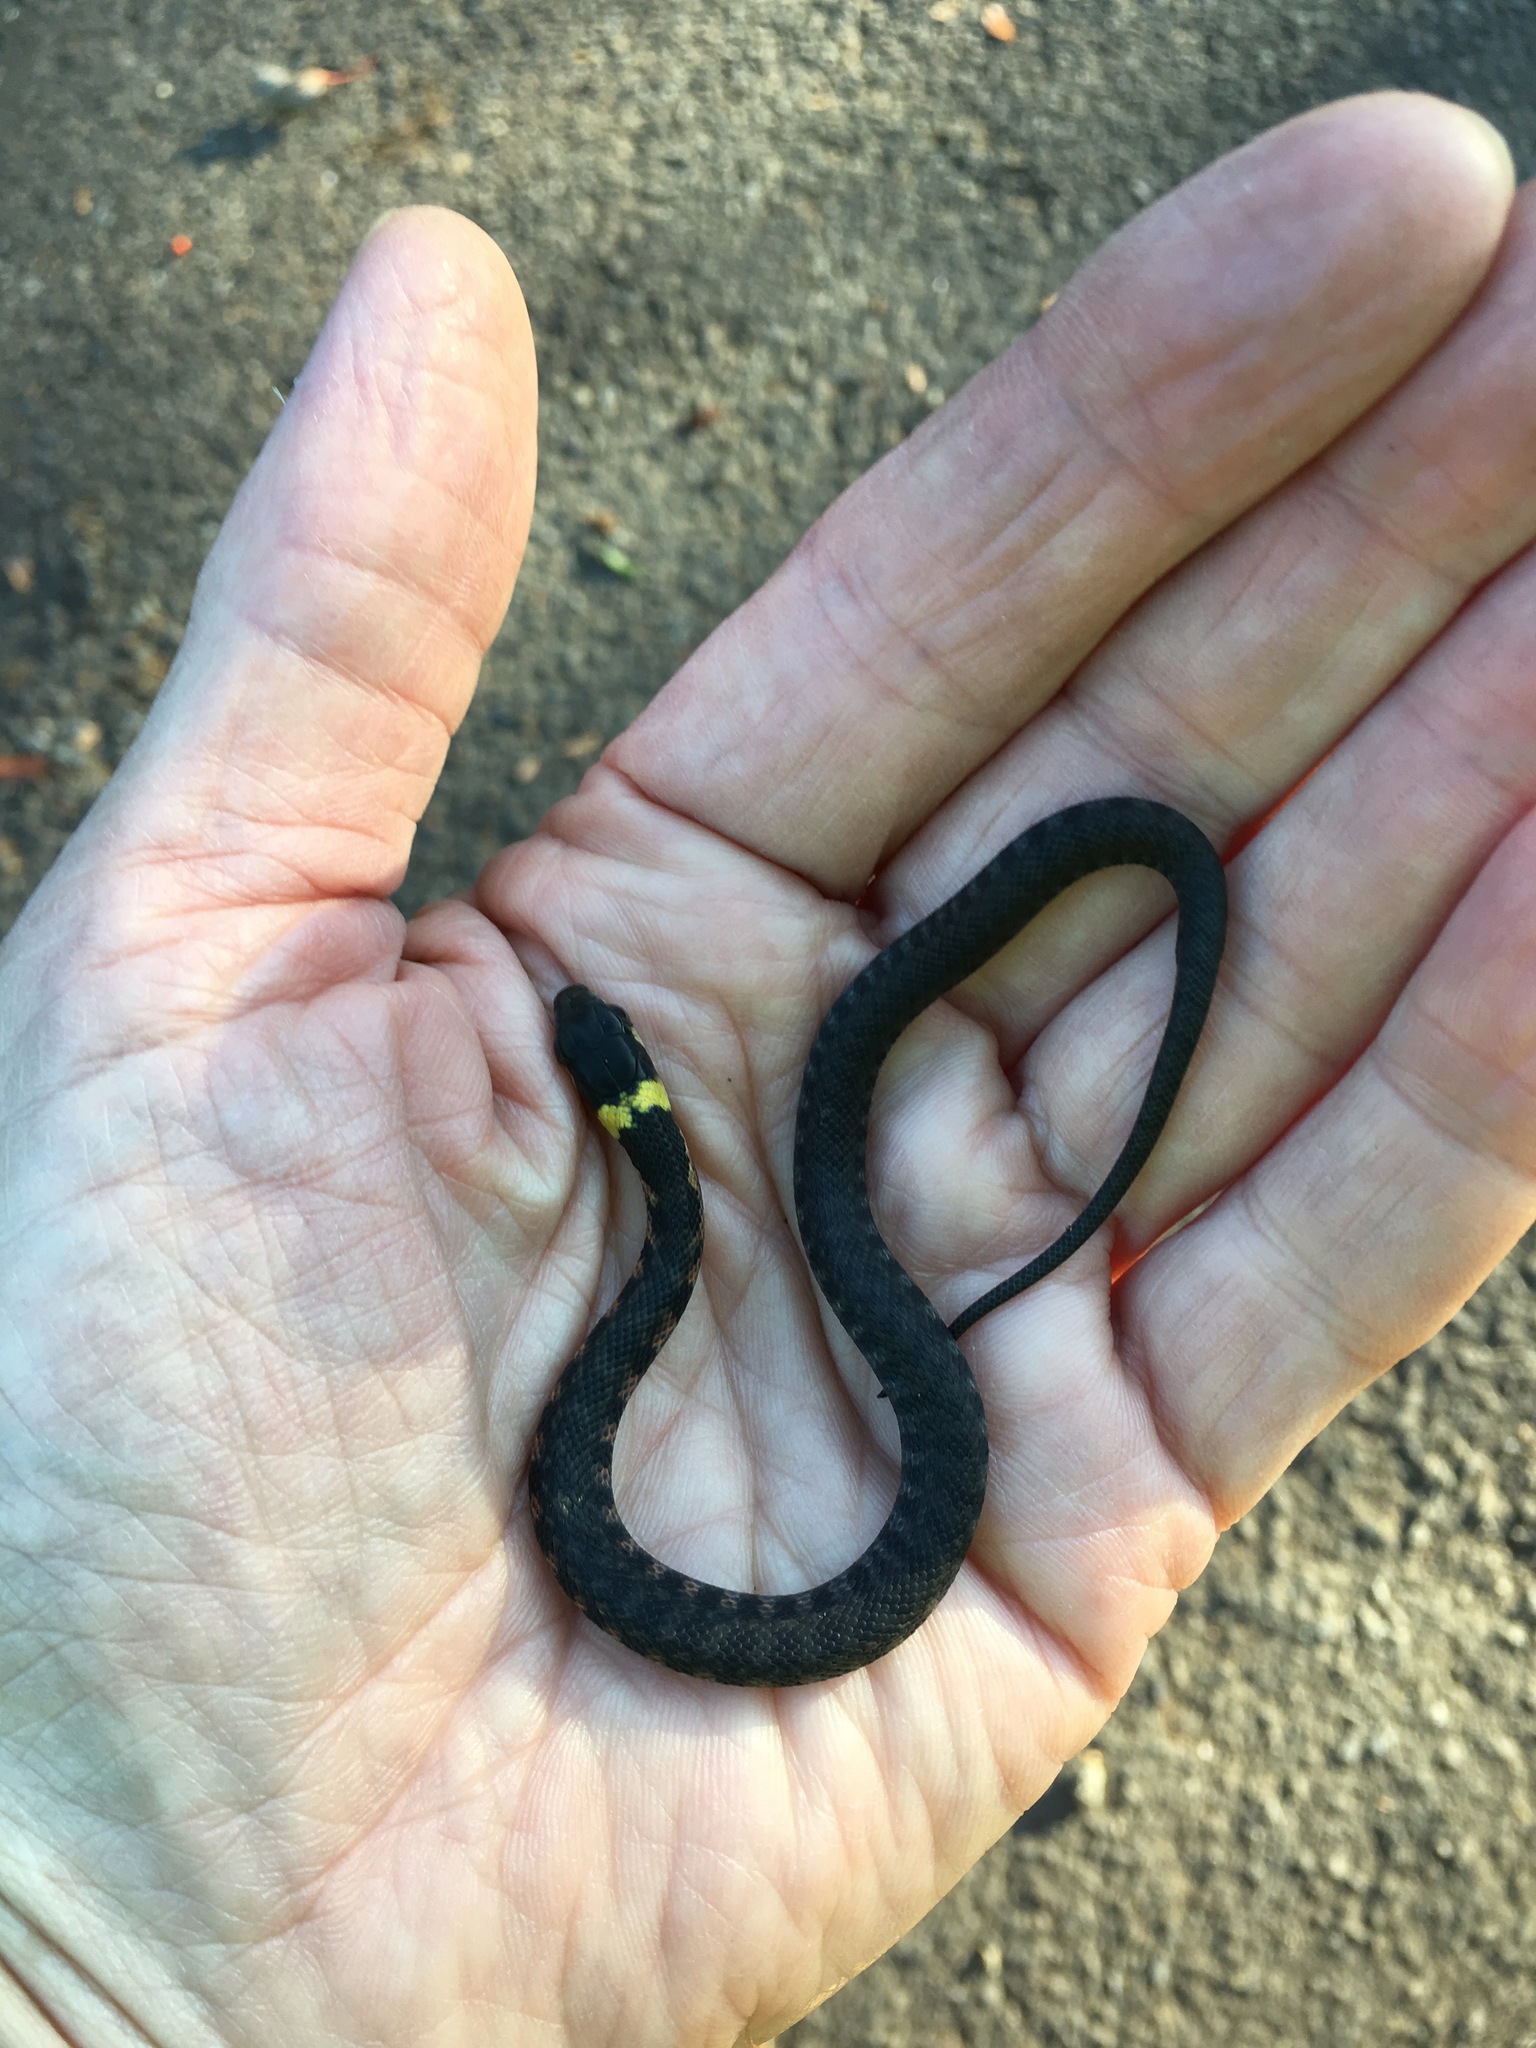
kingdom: Animalia
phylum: Chordata
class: Squamata
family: Colubridae
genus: Rhabdophis
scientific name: Rhabdophis tigrinus
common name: Tiger keelback
